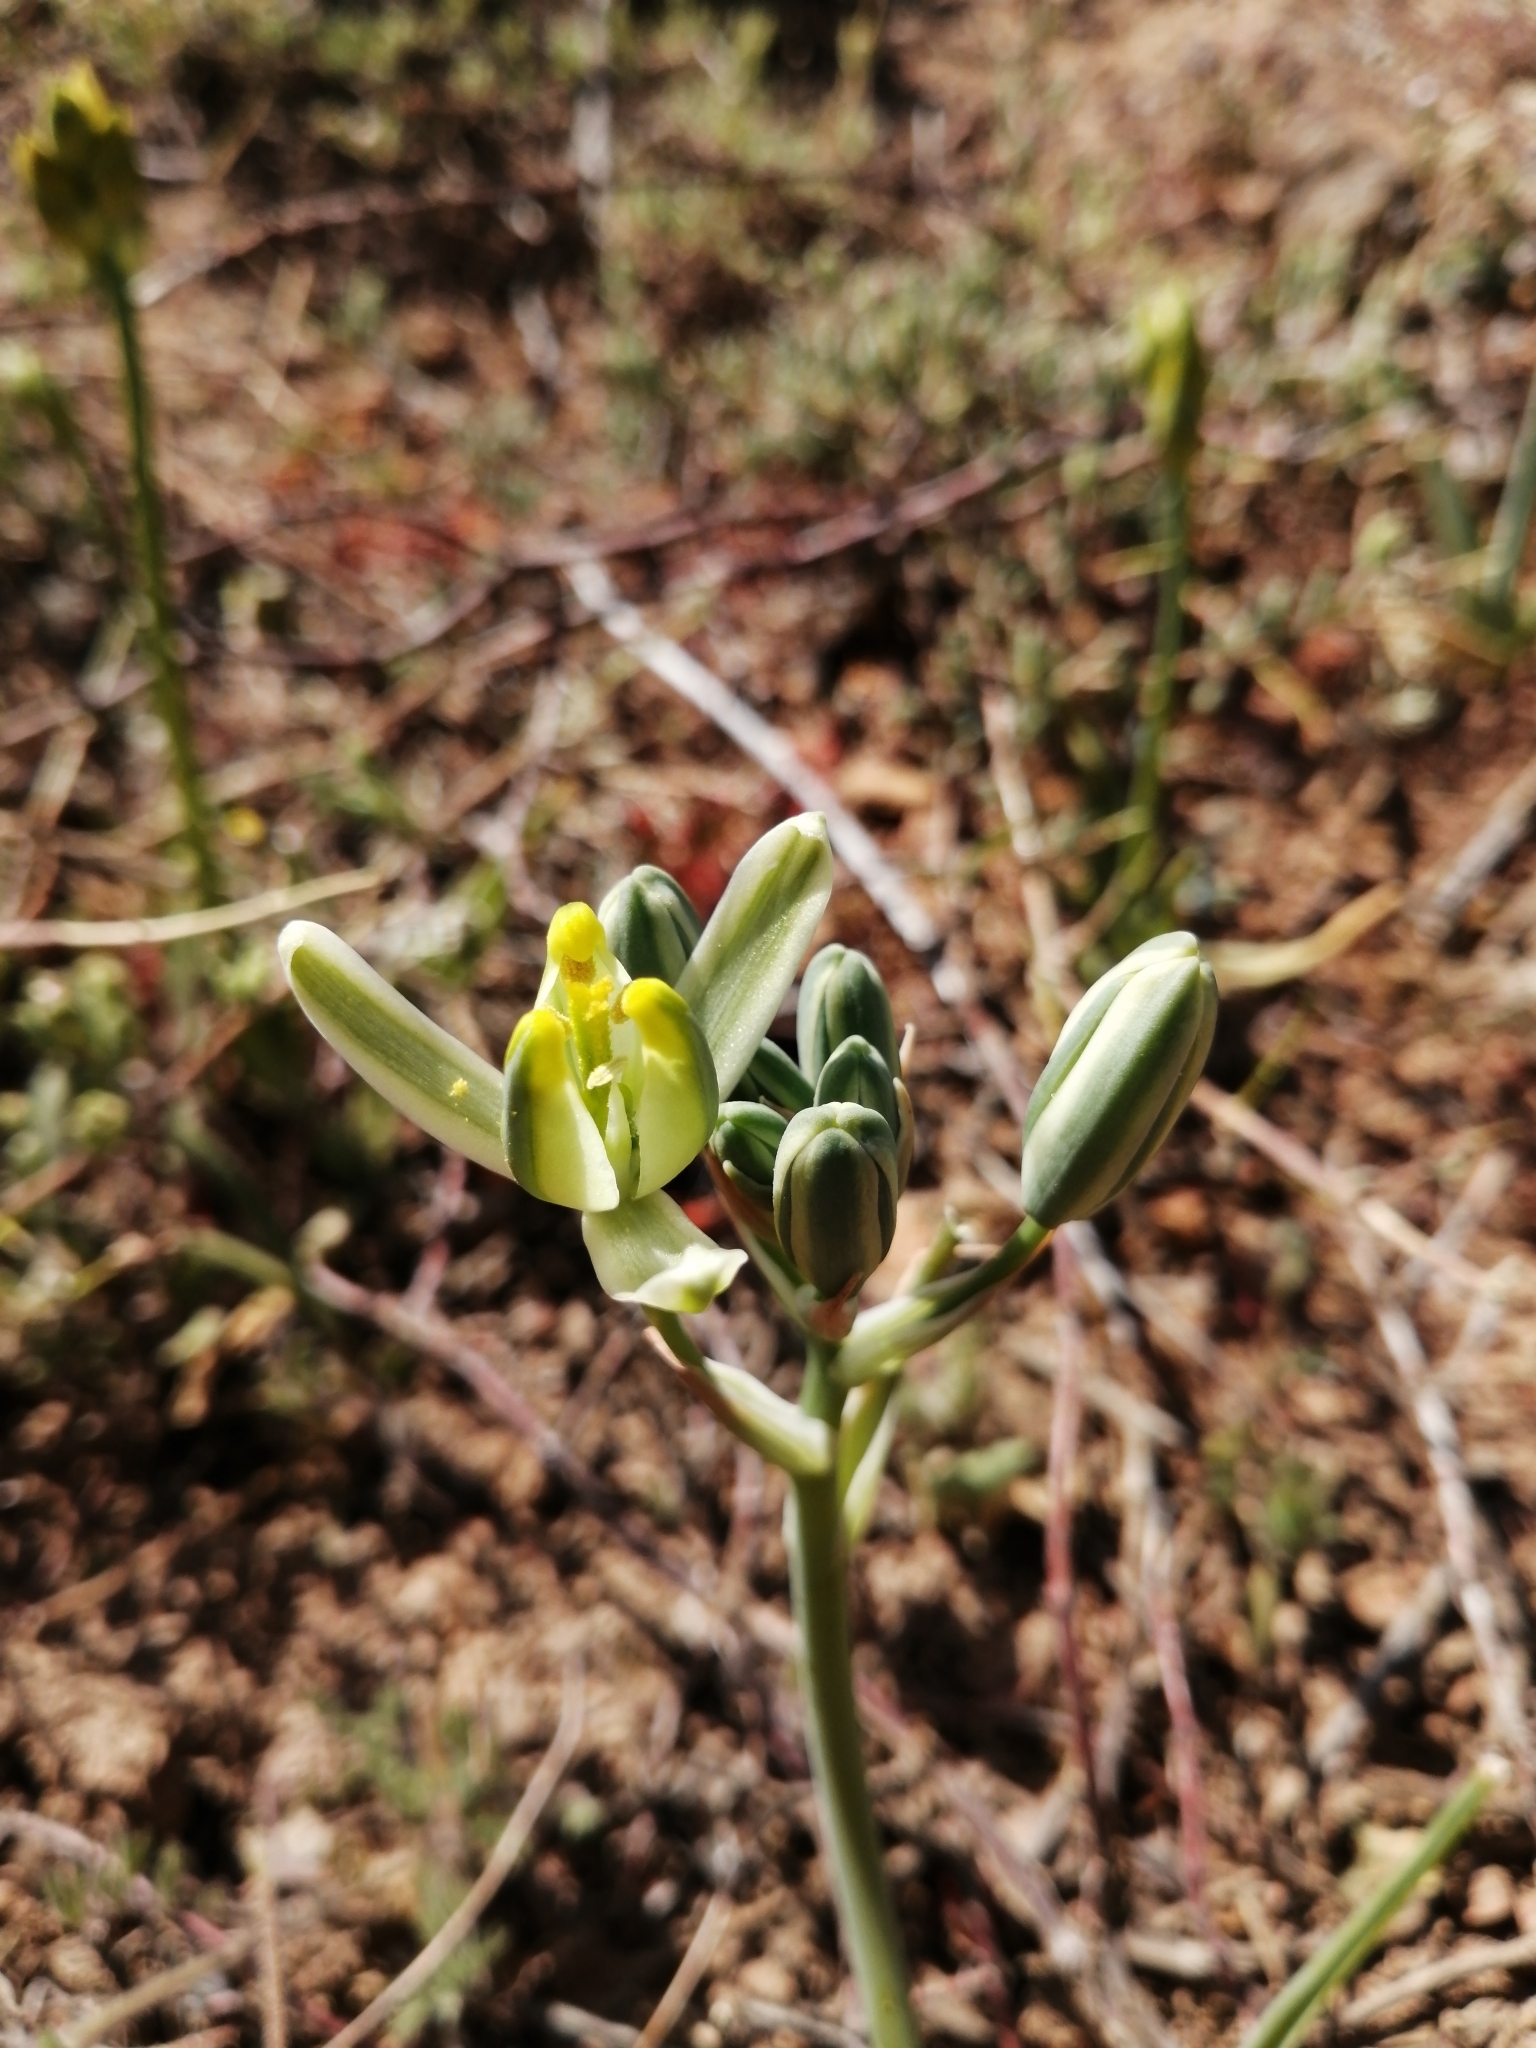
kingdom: Plantae
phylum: Tracheophyta
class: Liliopsida
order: Asparagales
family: Asparagaceae
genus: Albuca
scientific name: Albuca longipes
